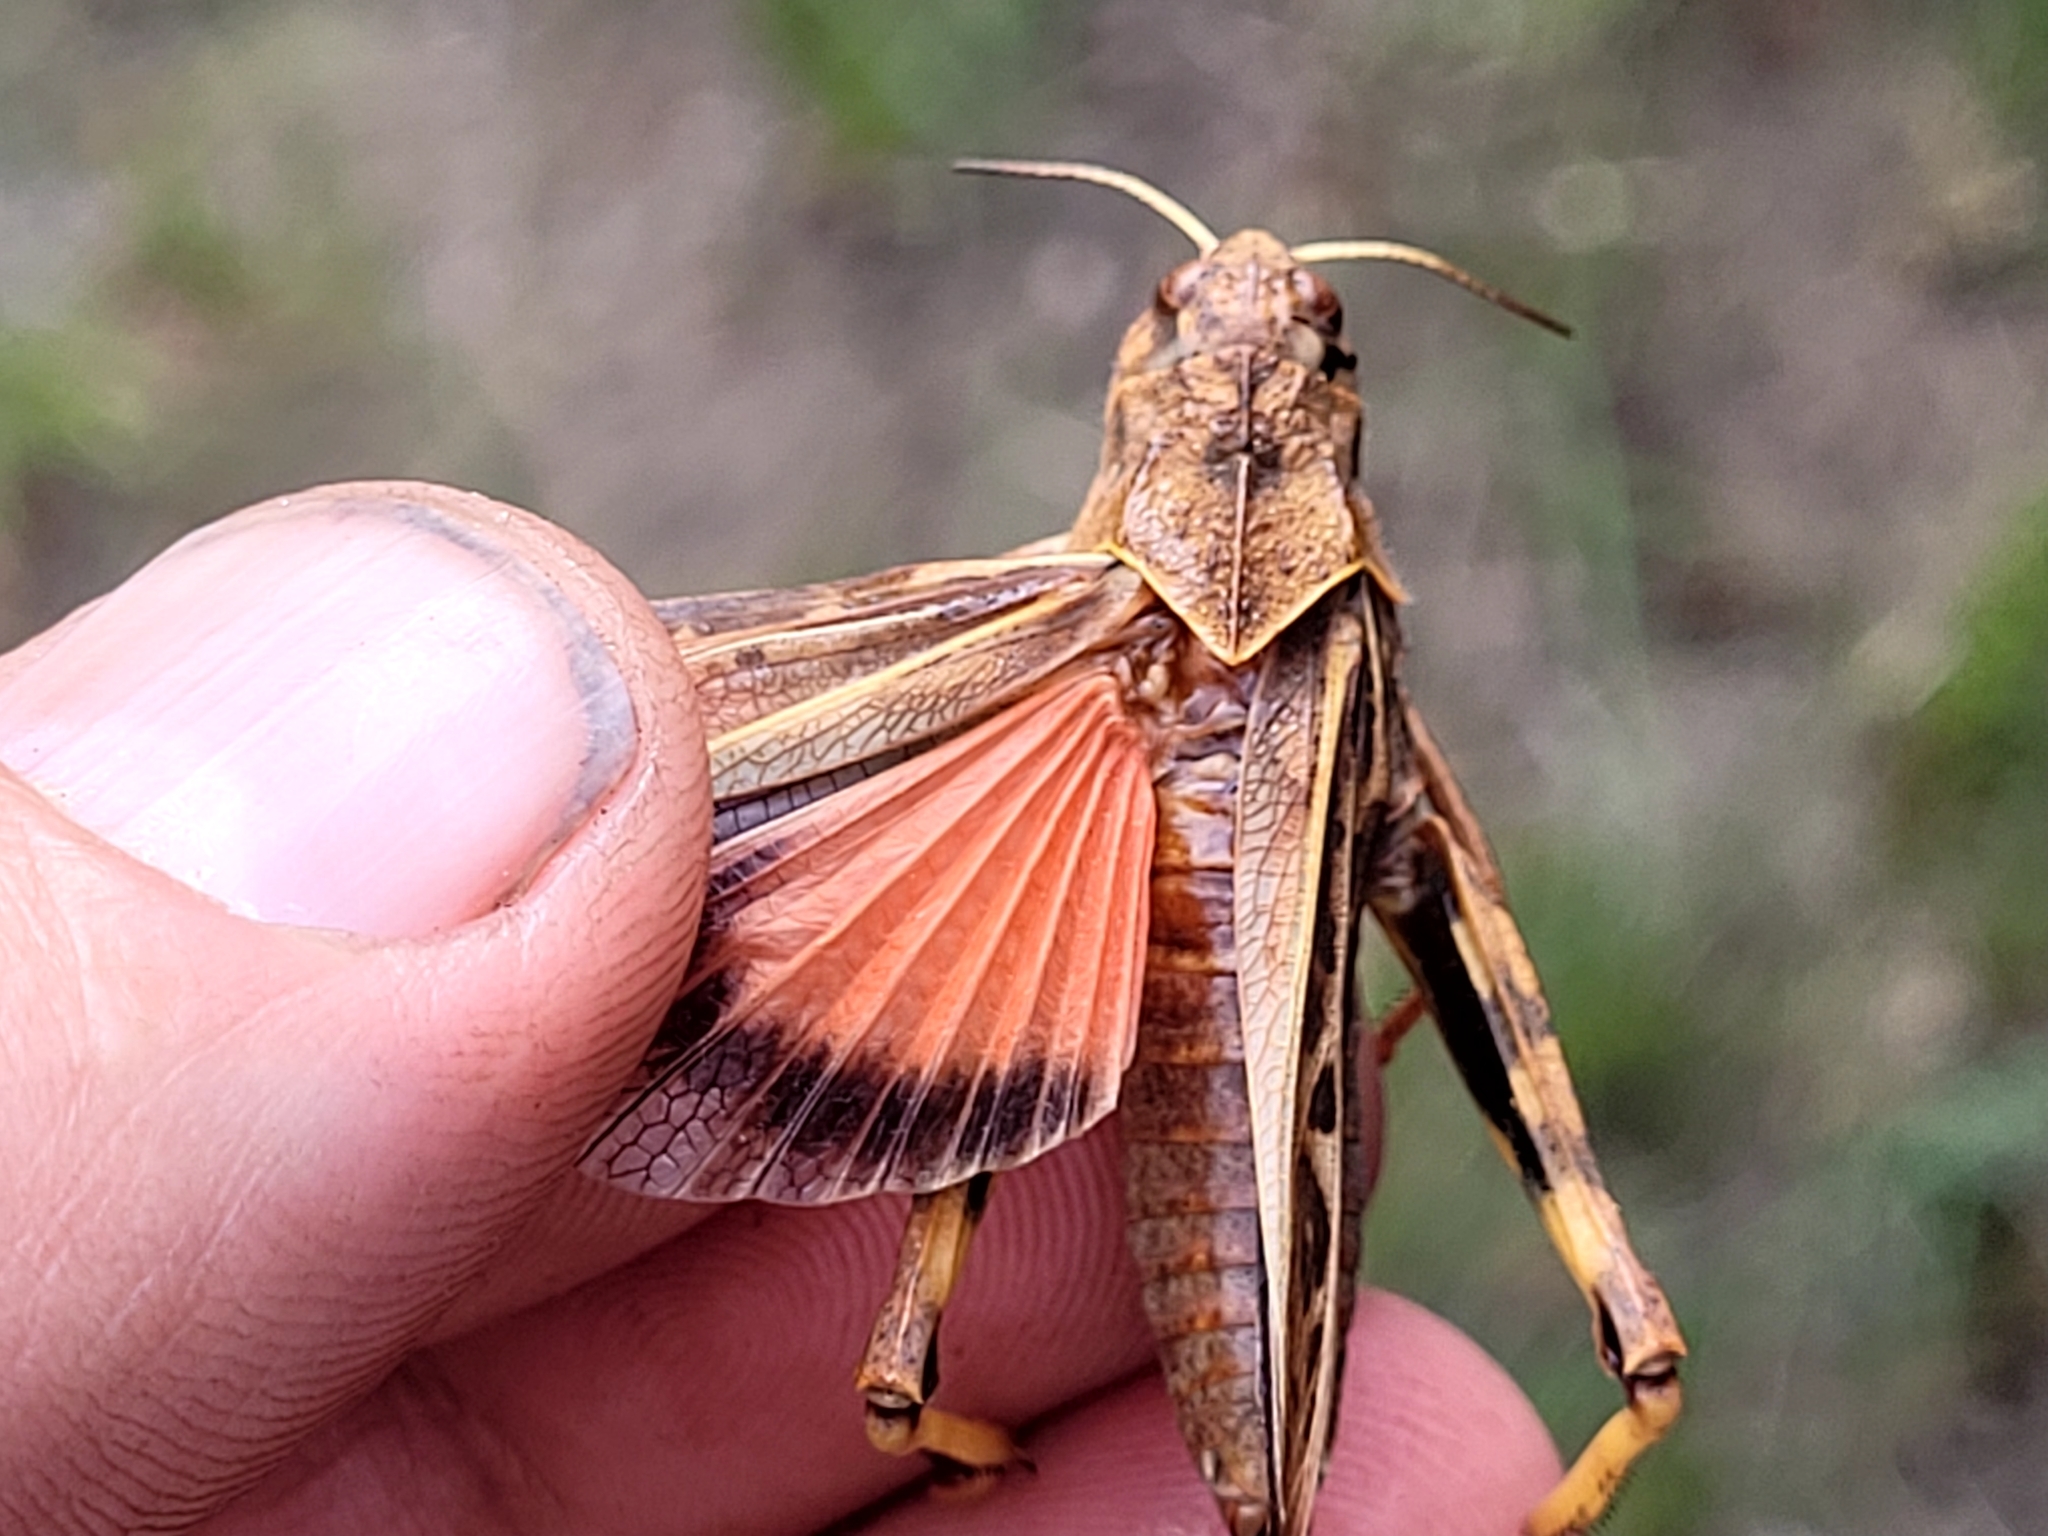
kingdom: Animalia
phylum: Arthropoda
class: Insecta
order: Orthoptera
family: Acrididae
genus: Pardalophora
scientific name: Pardalophora apiculata
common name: Coral-winged locust
